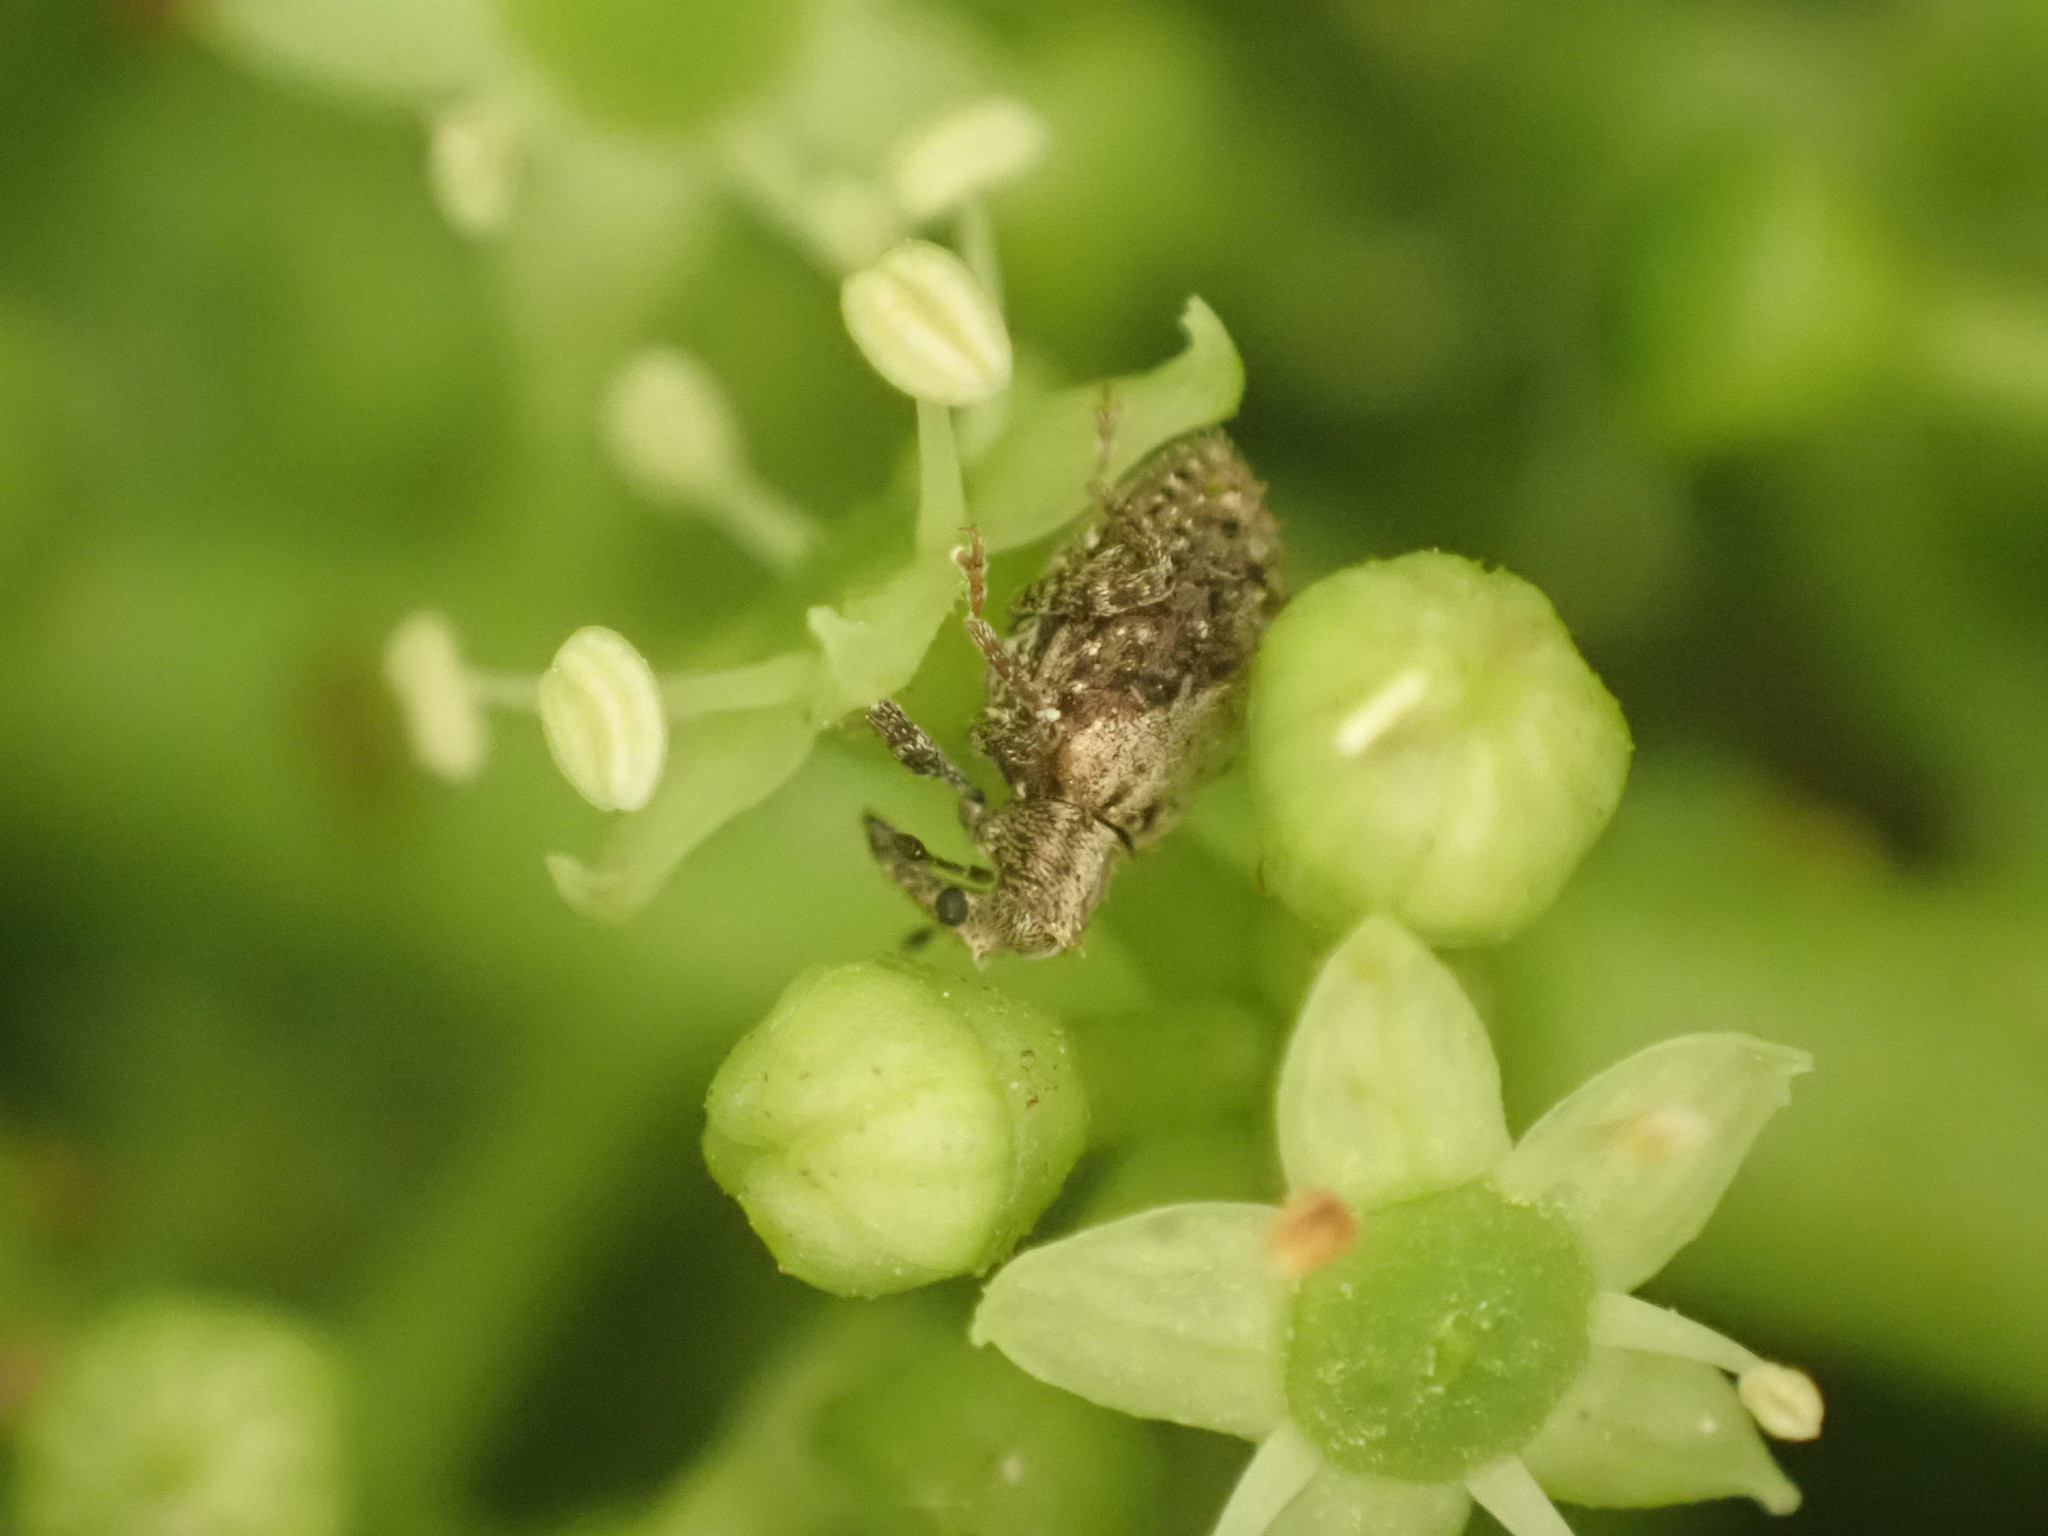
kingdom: Animalia
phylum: Arthropoda
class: Insecta
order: Coleoptera
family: Curculionidae
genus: Tysius
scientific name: Tysius bicornis
